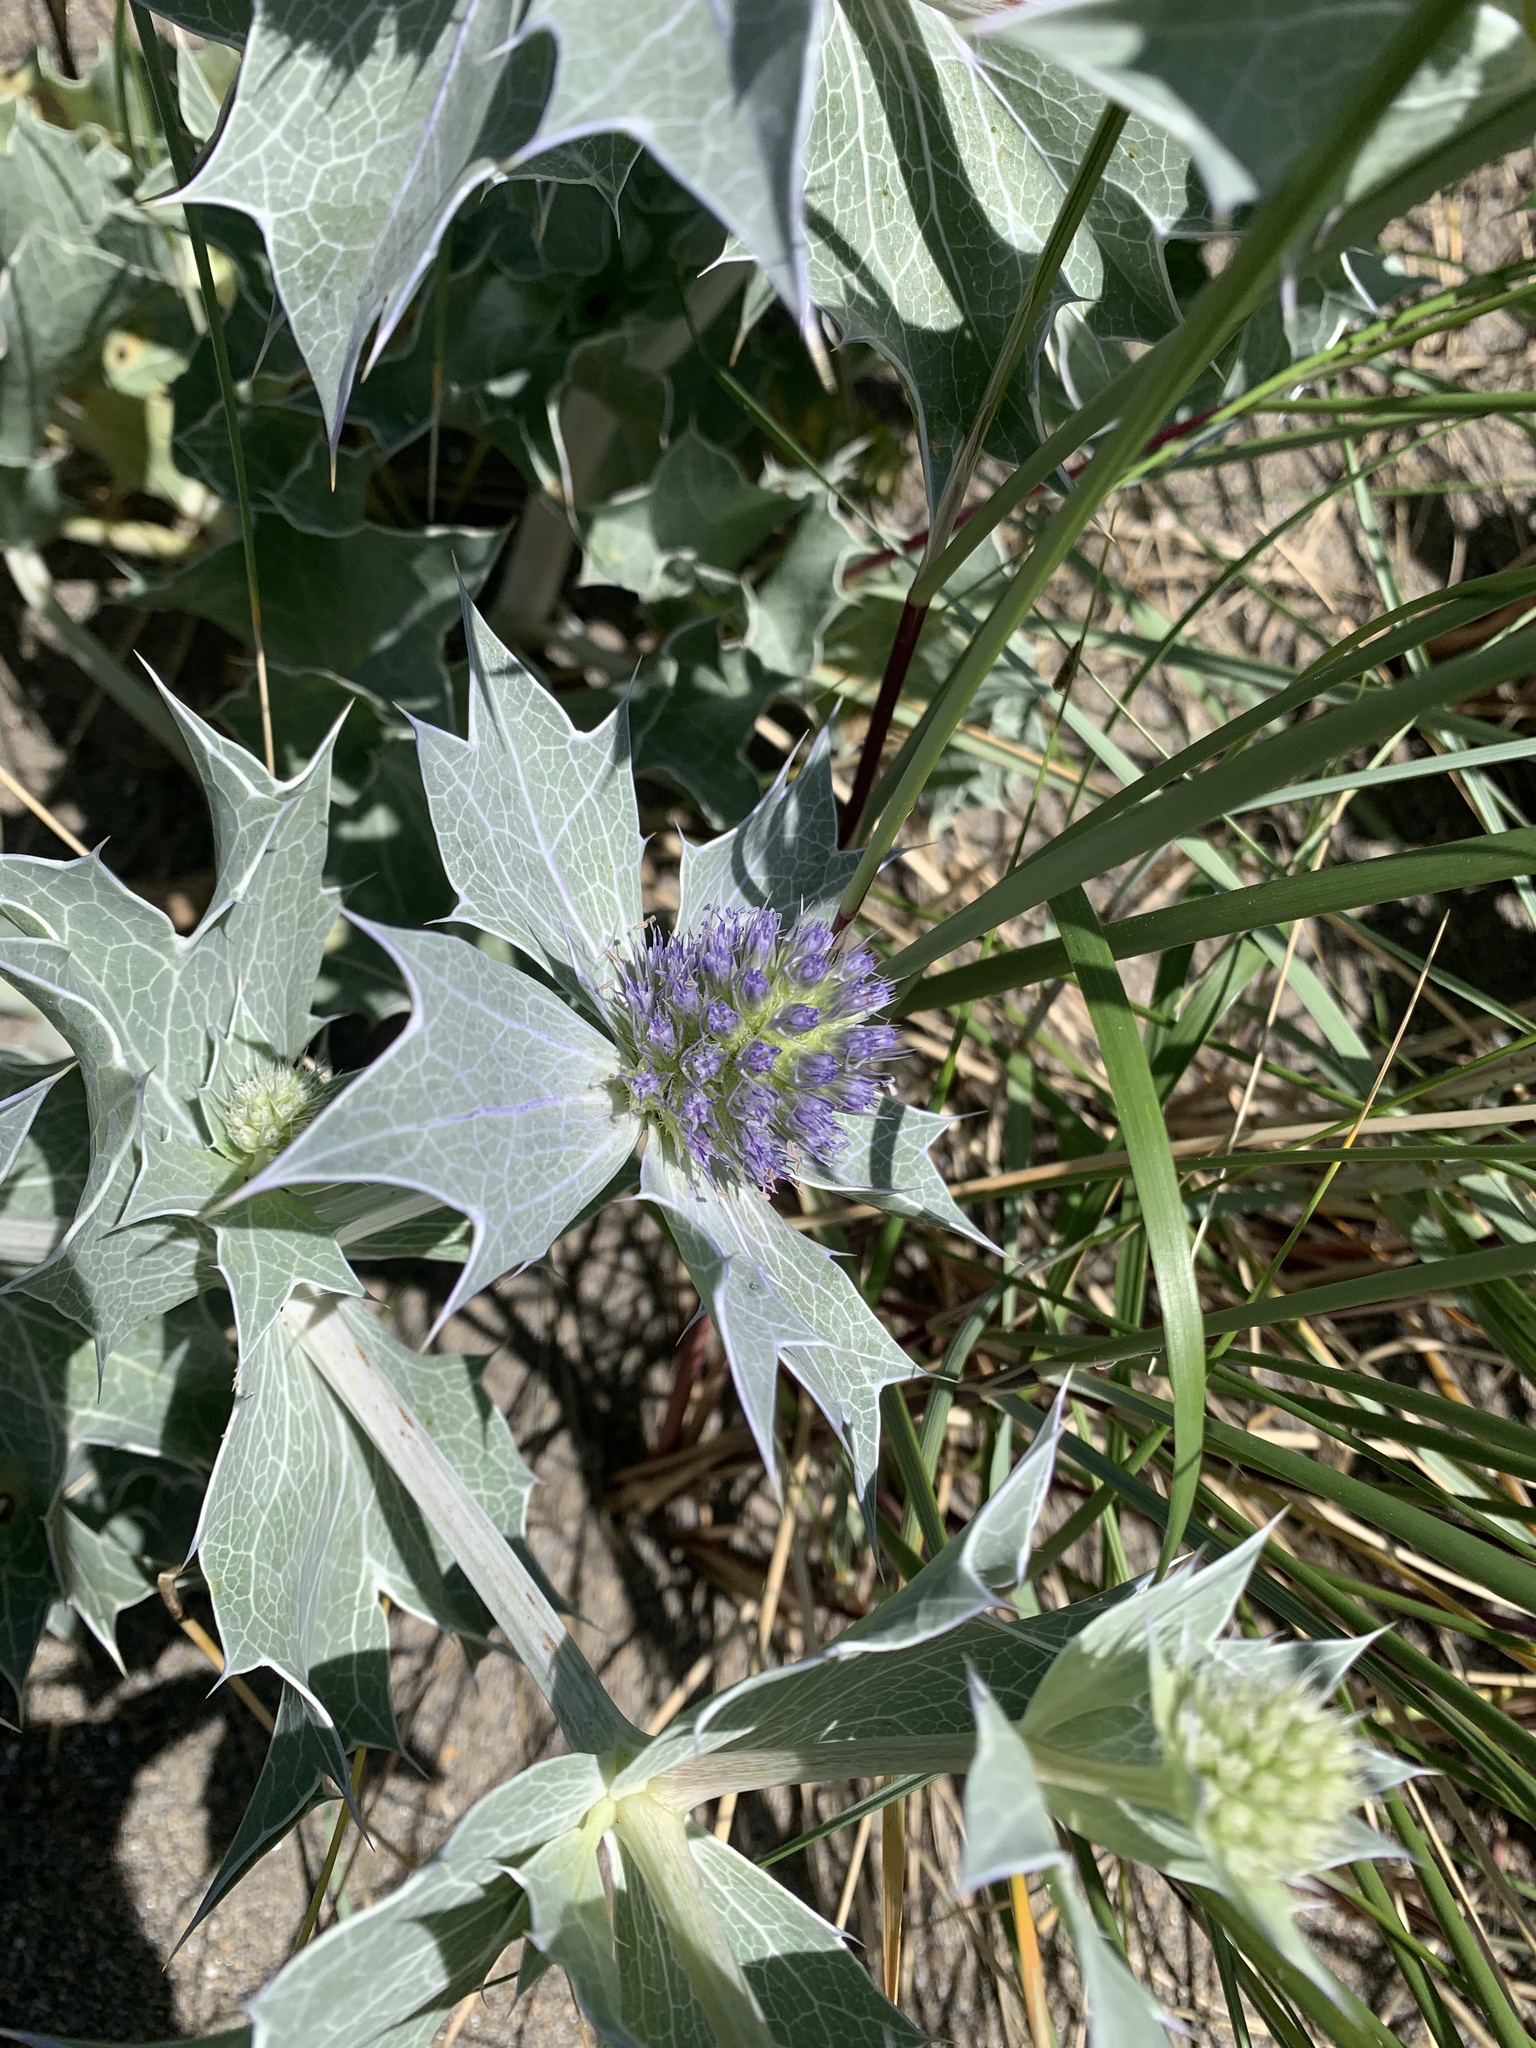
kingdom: Plantae
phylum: Tracheophyta
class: Magnoliopsida
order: Apiales
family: Apiaceae
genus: Eryngium
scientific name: Eryngium maritimum
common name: Sea-holly
